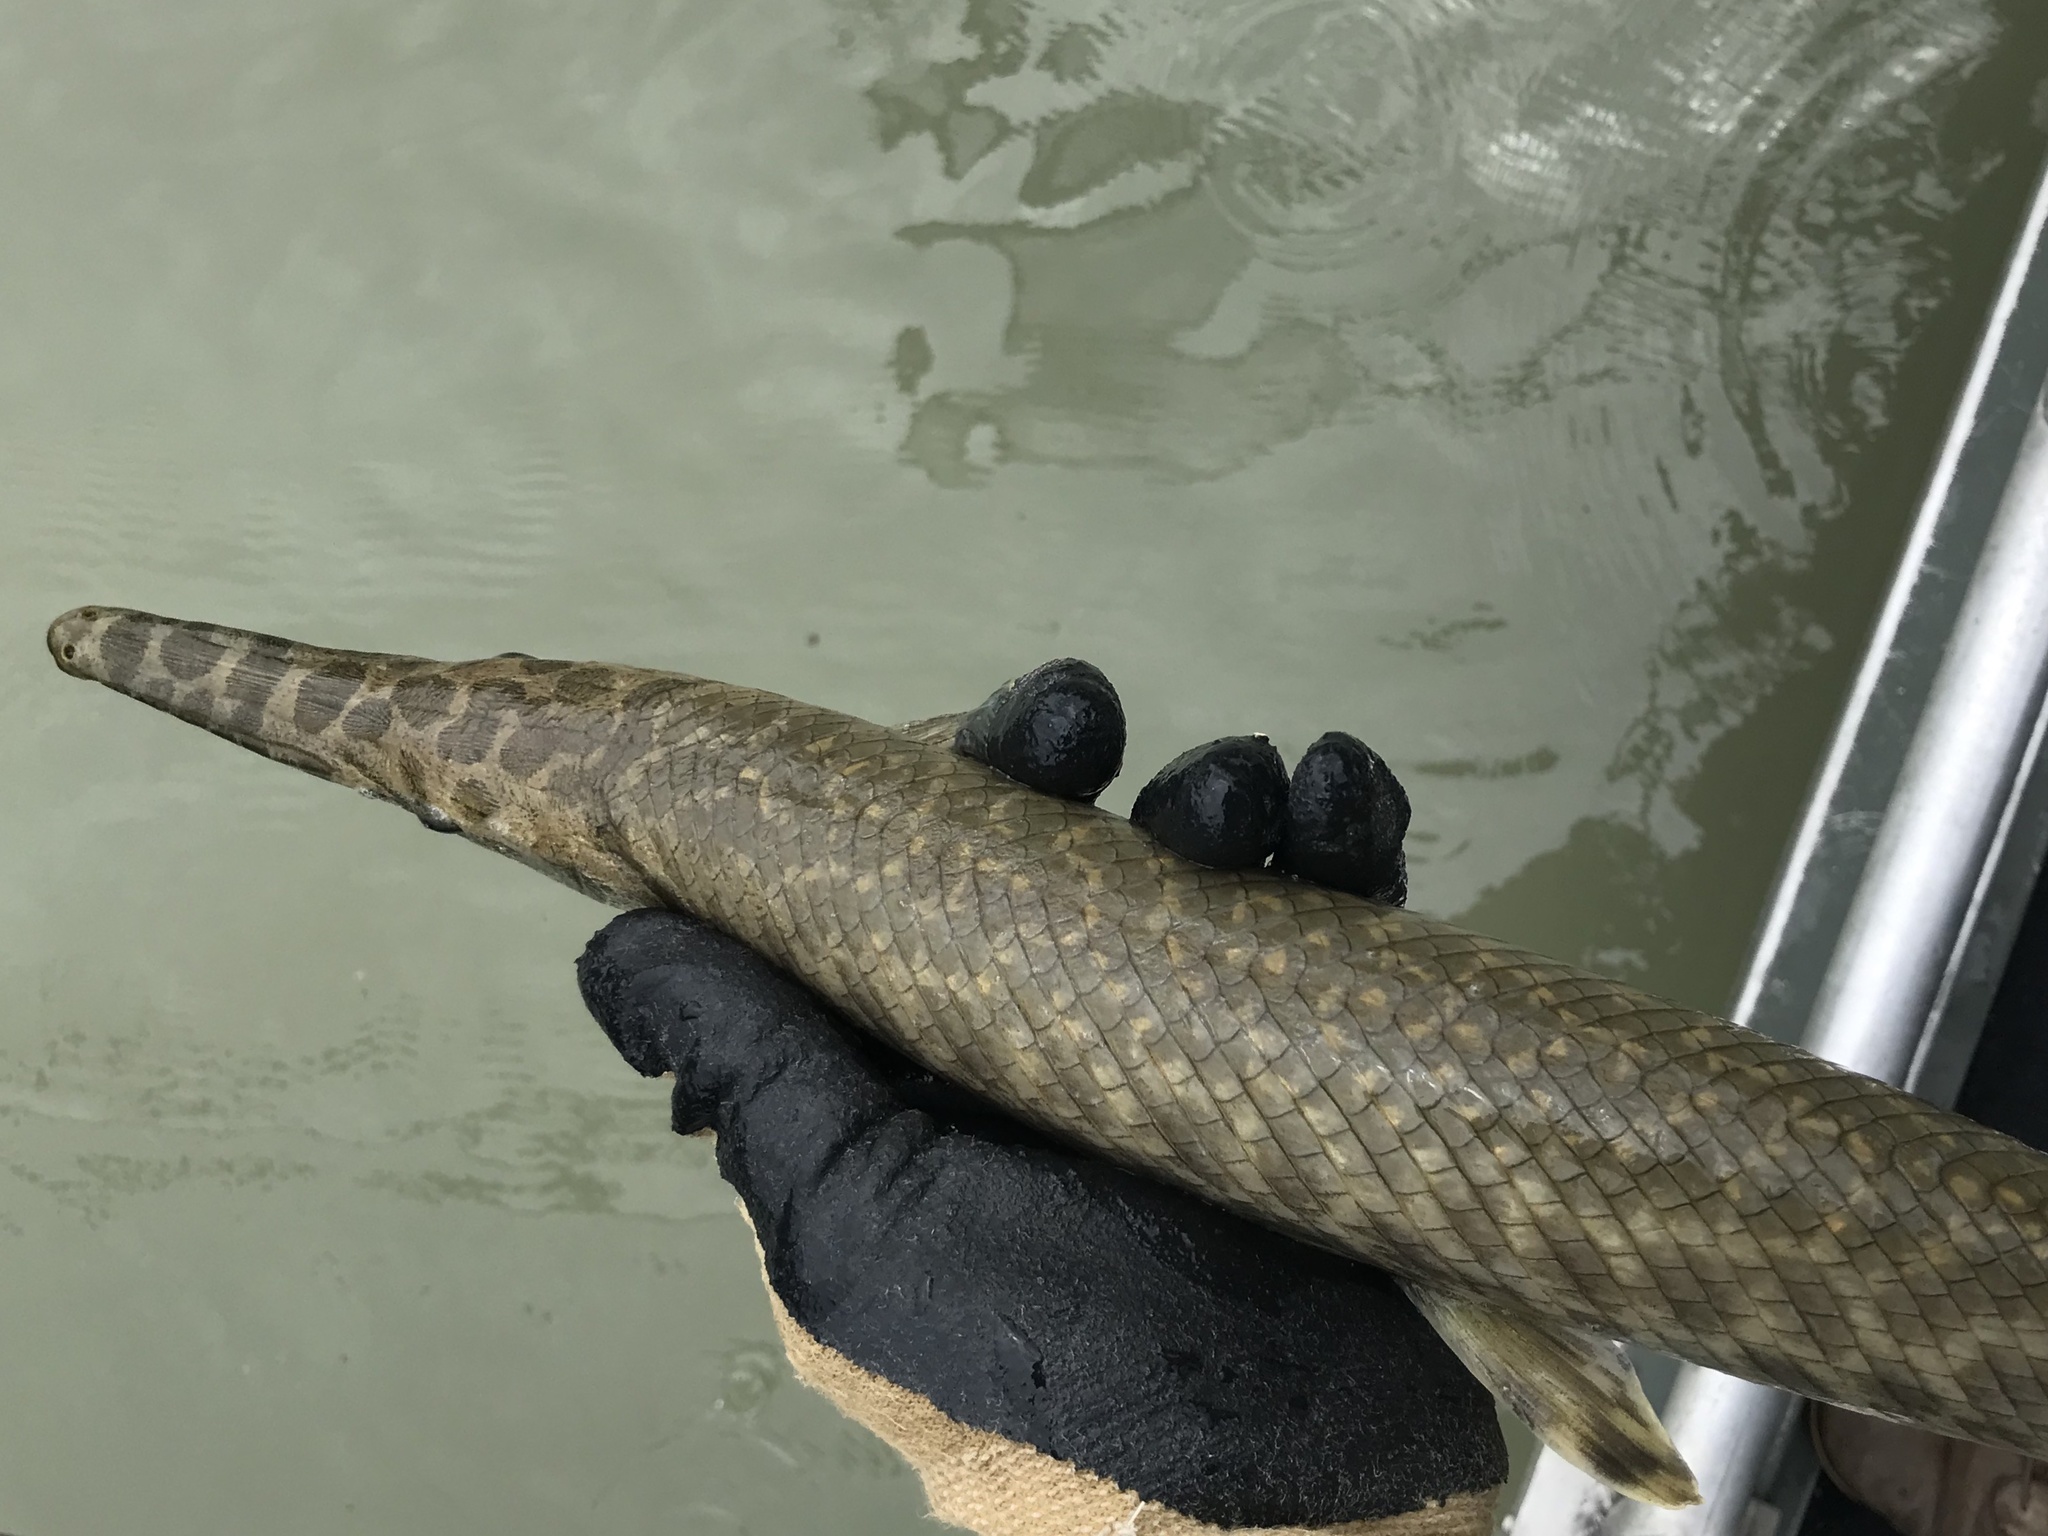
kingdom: Animalia
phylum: Chordata
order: Lepisosteiformes
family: Lepisosteidae
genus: Lepisosteus
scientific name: Lepisosteus oculatus
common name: Spotted gar
